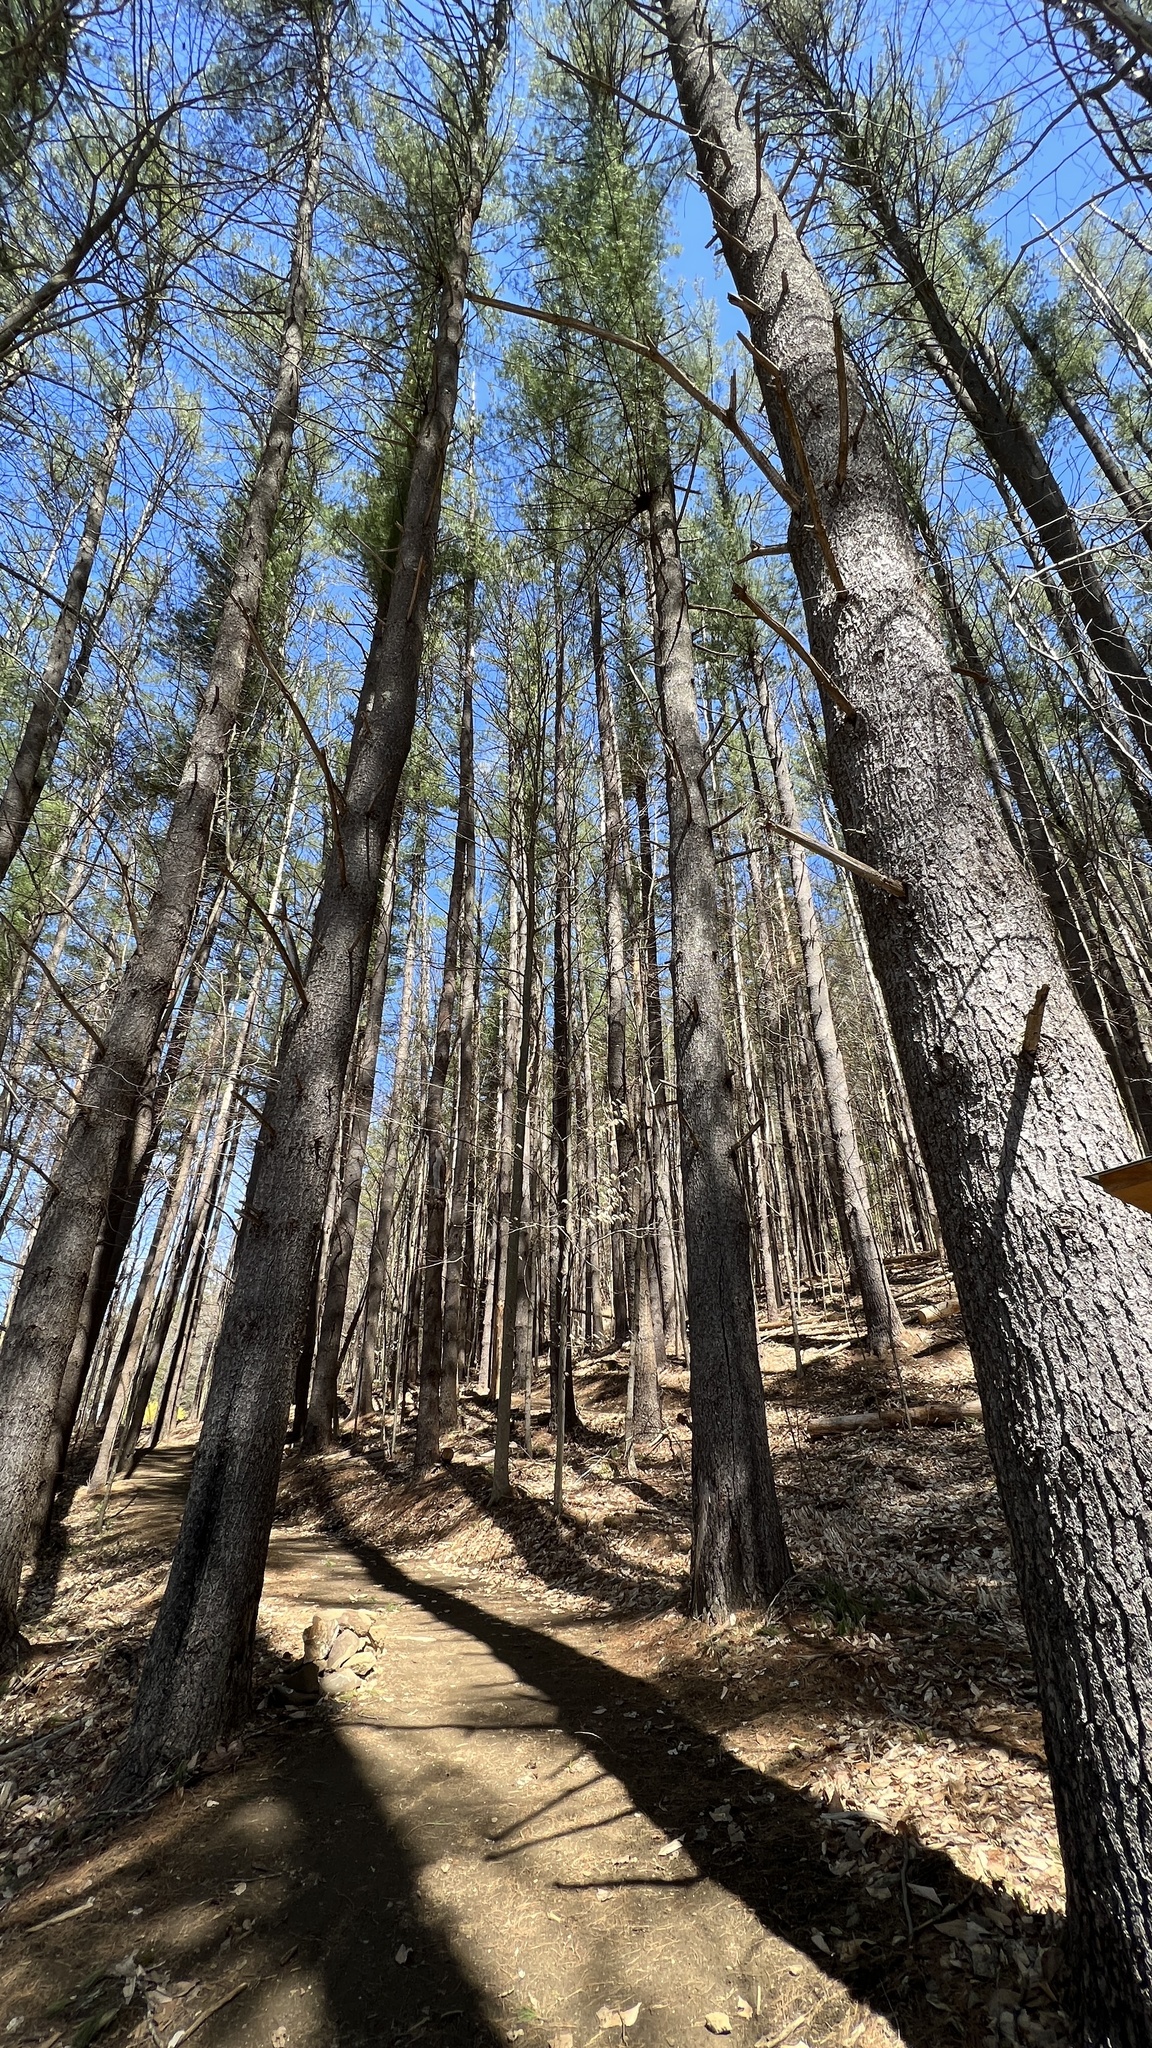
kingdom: Plantae
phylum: Tracheophyta
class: Pinopsida
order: Pinales
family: Pinaceae
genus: Pinus
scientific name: Pinus strobus
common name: Weymouth pine
